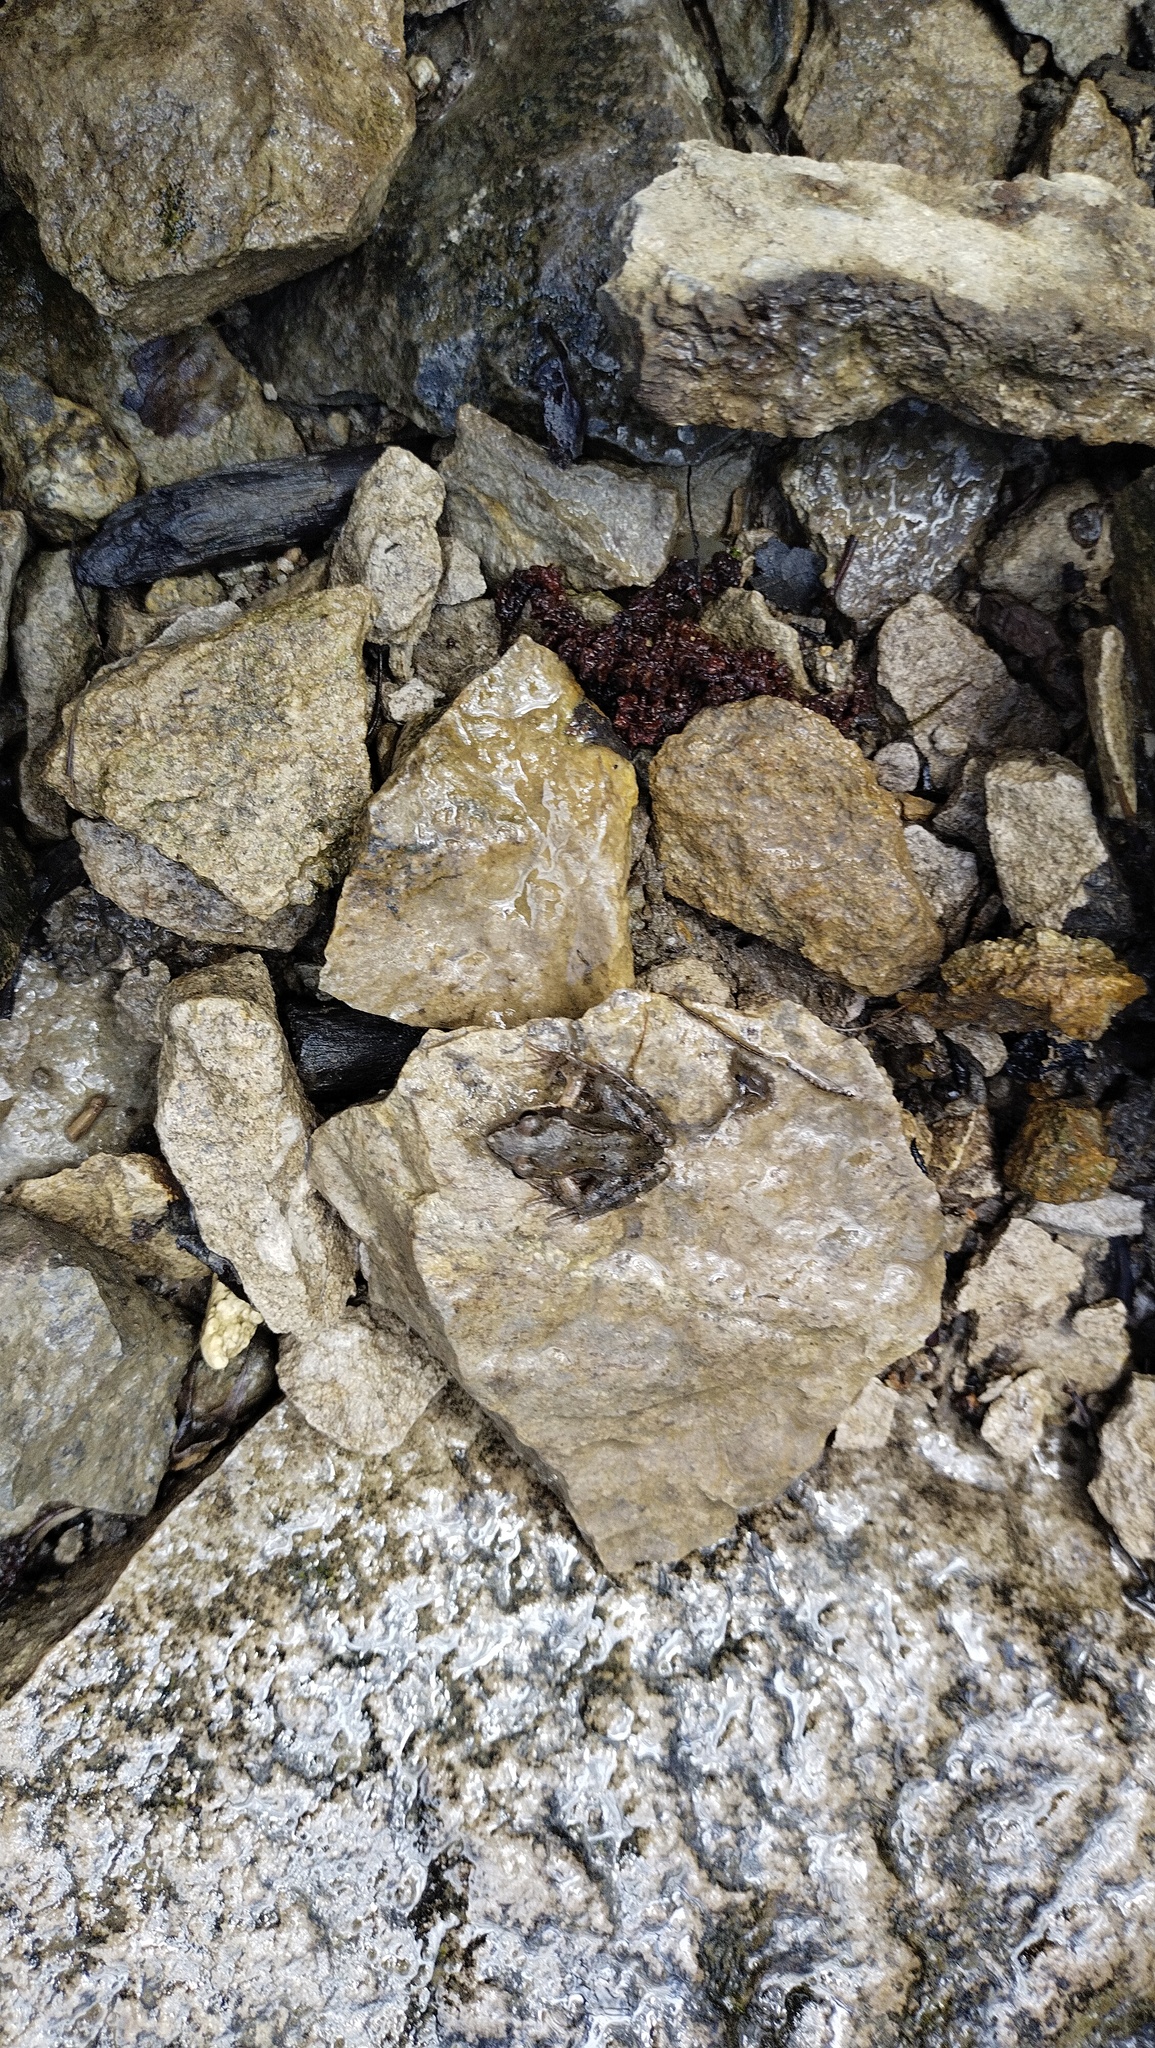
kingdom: Animalia
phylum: Chordata
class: Amphibia
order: Anura
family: Ranidae
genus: Rana
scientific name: Rana temporaria
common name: Common frog
